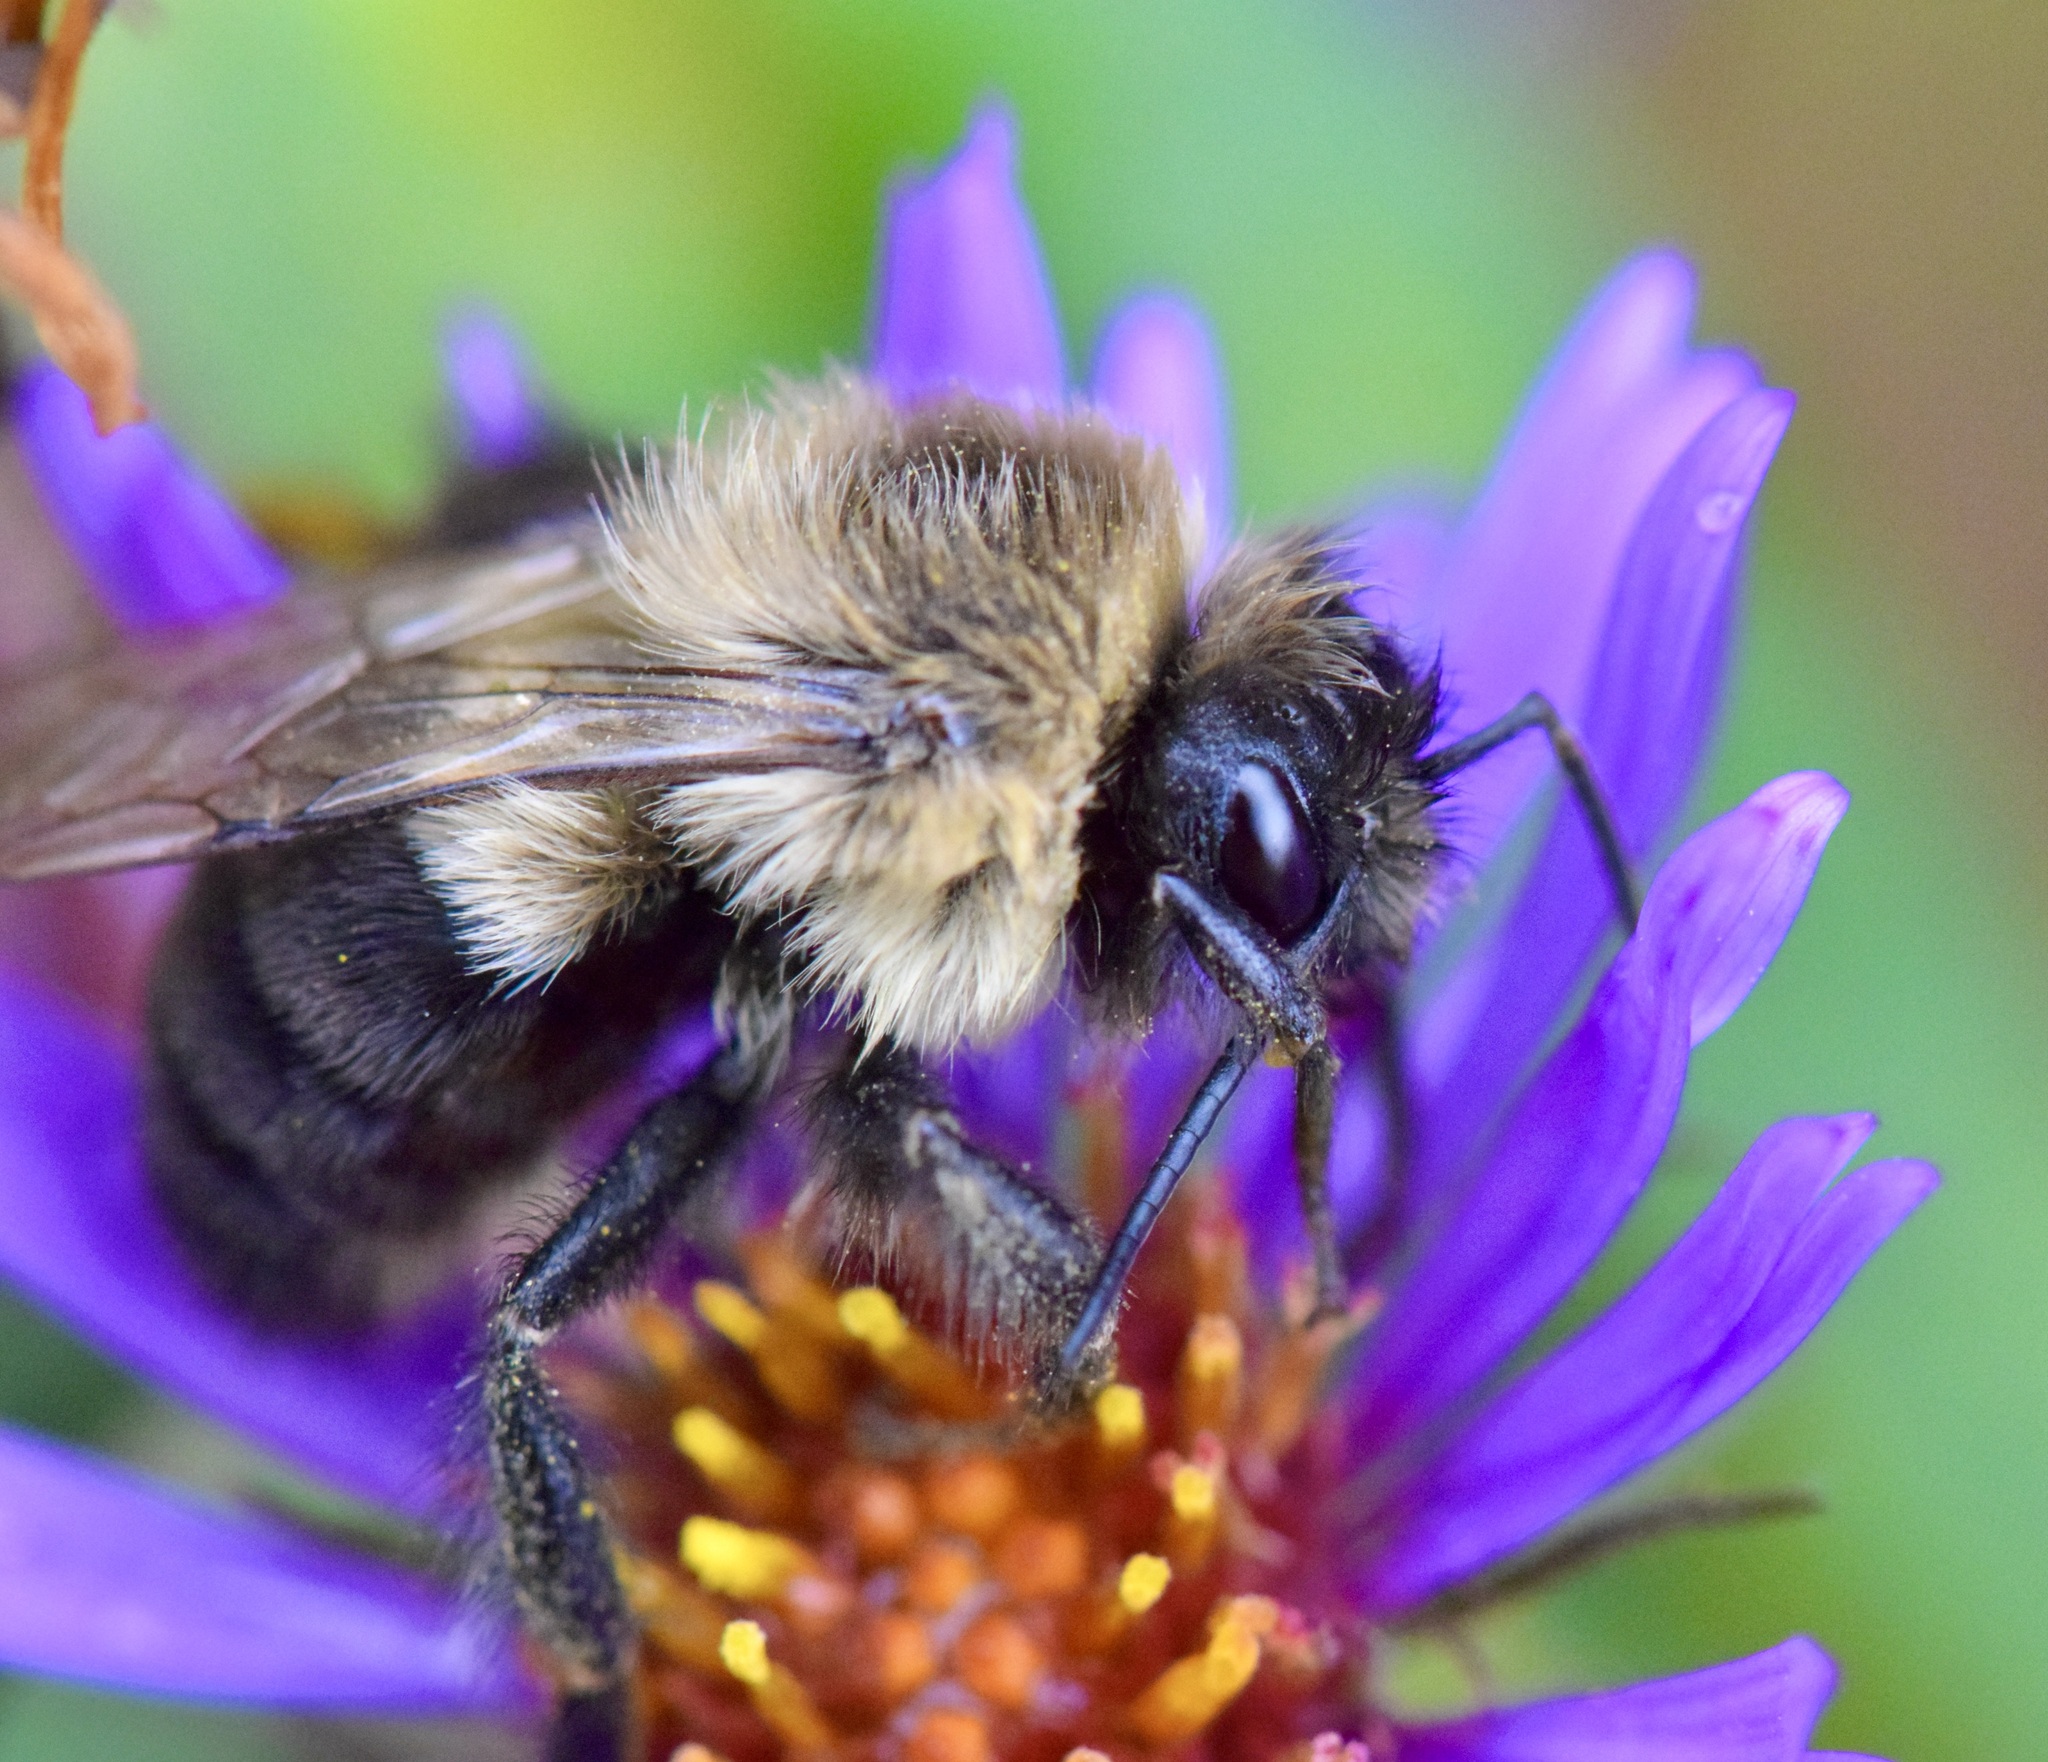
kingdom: Animalia
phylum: Arthropoda
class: Insecta
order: Hymenoptera
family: Apidae
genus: Bombus
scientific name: Bombus impatiens
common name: Common eastern bumble bee
